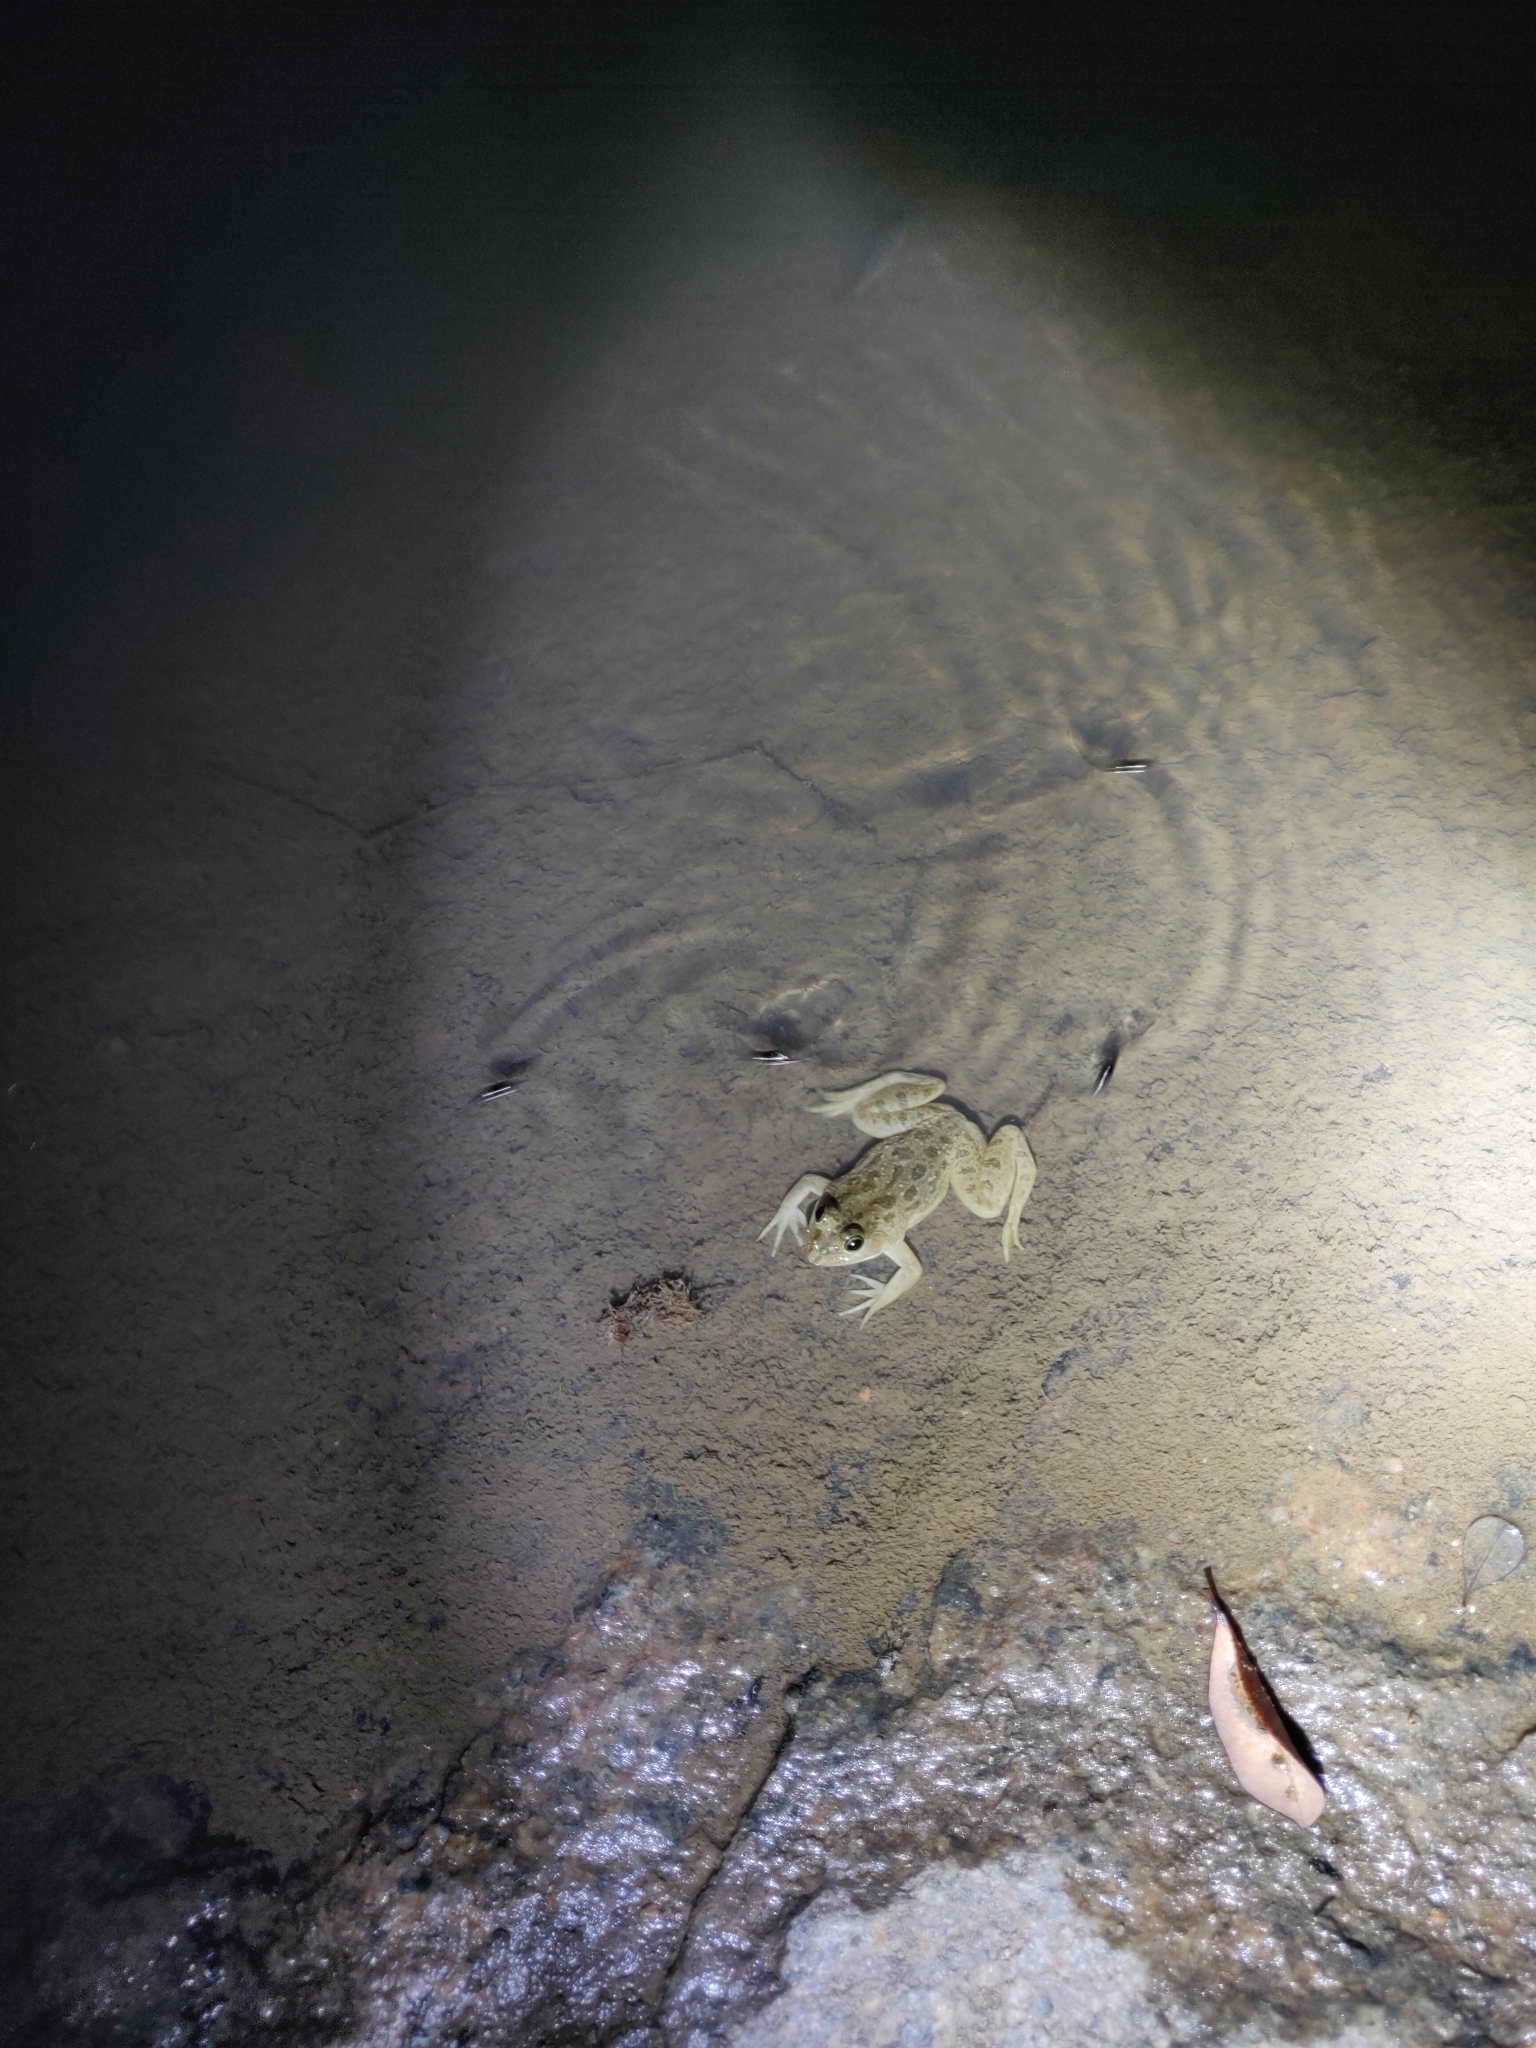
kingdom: Animalia
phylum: Chordata
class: Amphibia
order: Anura
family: Dicroglossidae
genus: Euphlyctis
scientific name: Euphlyctis cyanophlyctis
